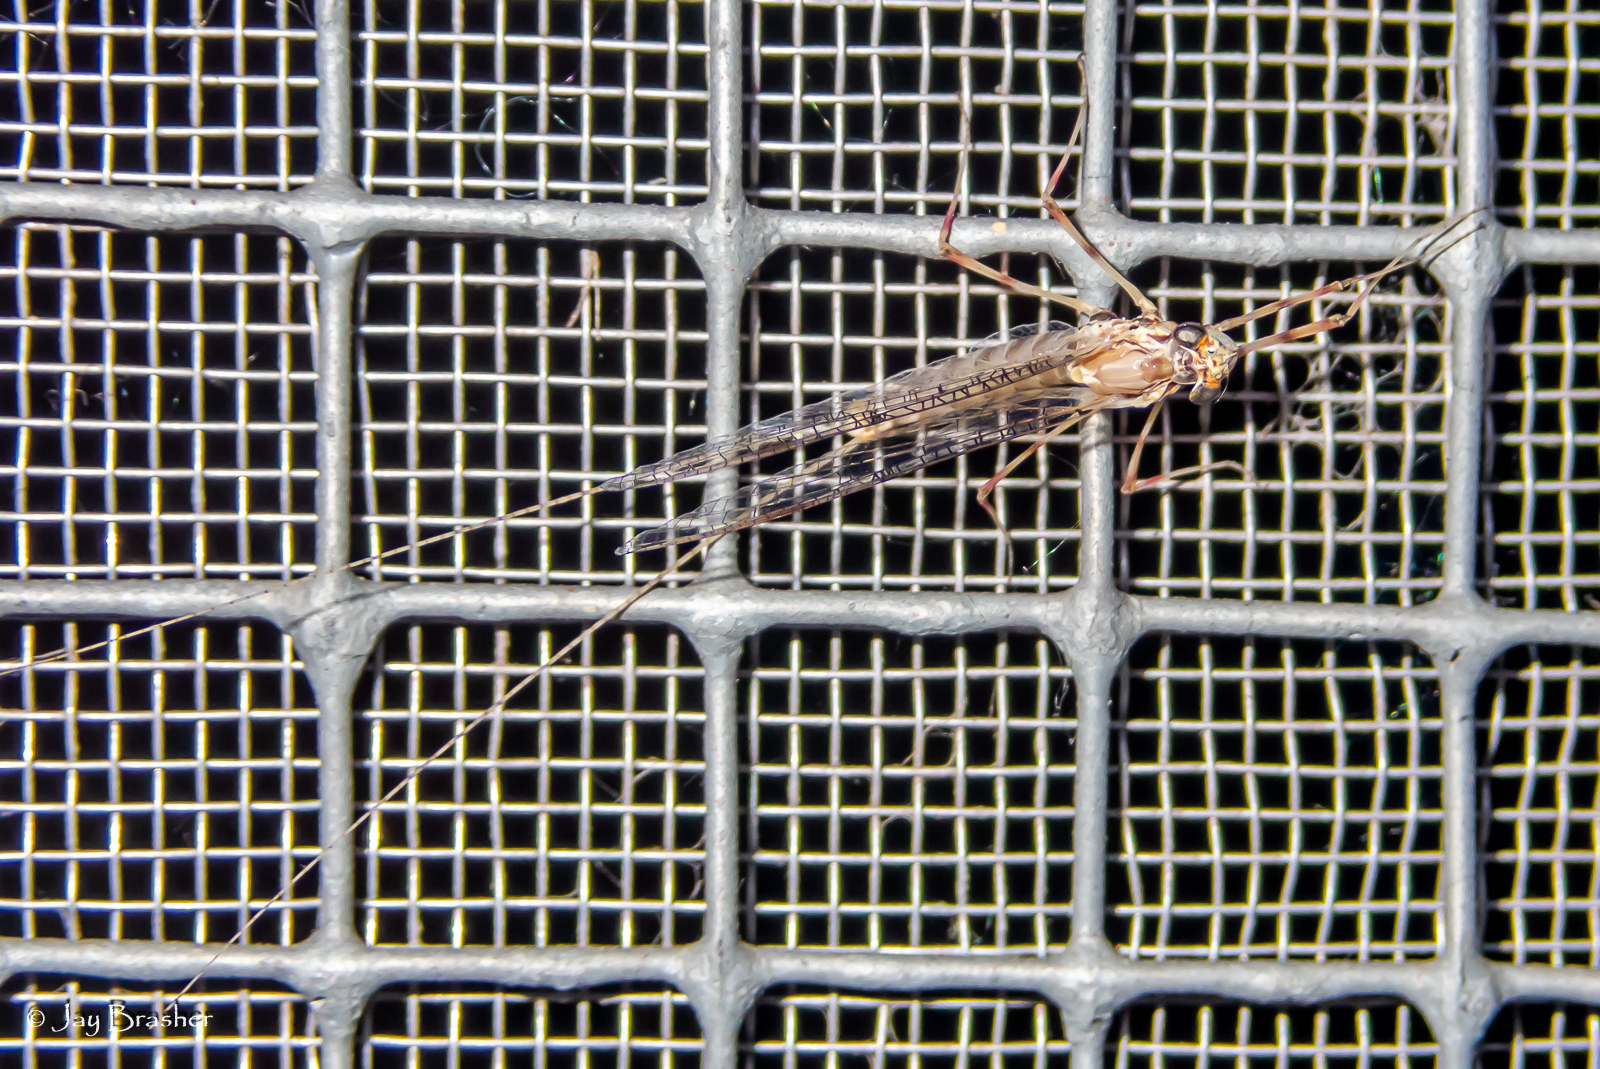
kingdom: Animalia
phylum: Arthropoda
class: Insecta
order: Ephemeroptera
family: Heptageniidae
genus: Stenonema
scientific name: Stenonema femoratum
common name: Dark cahill
